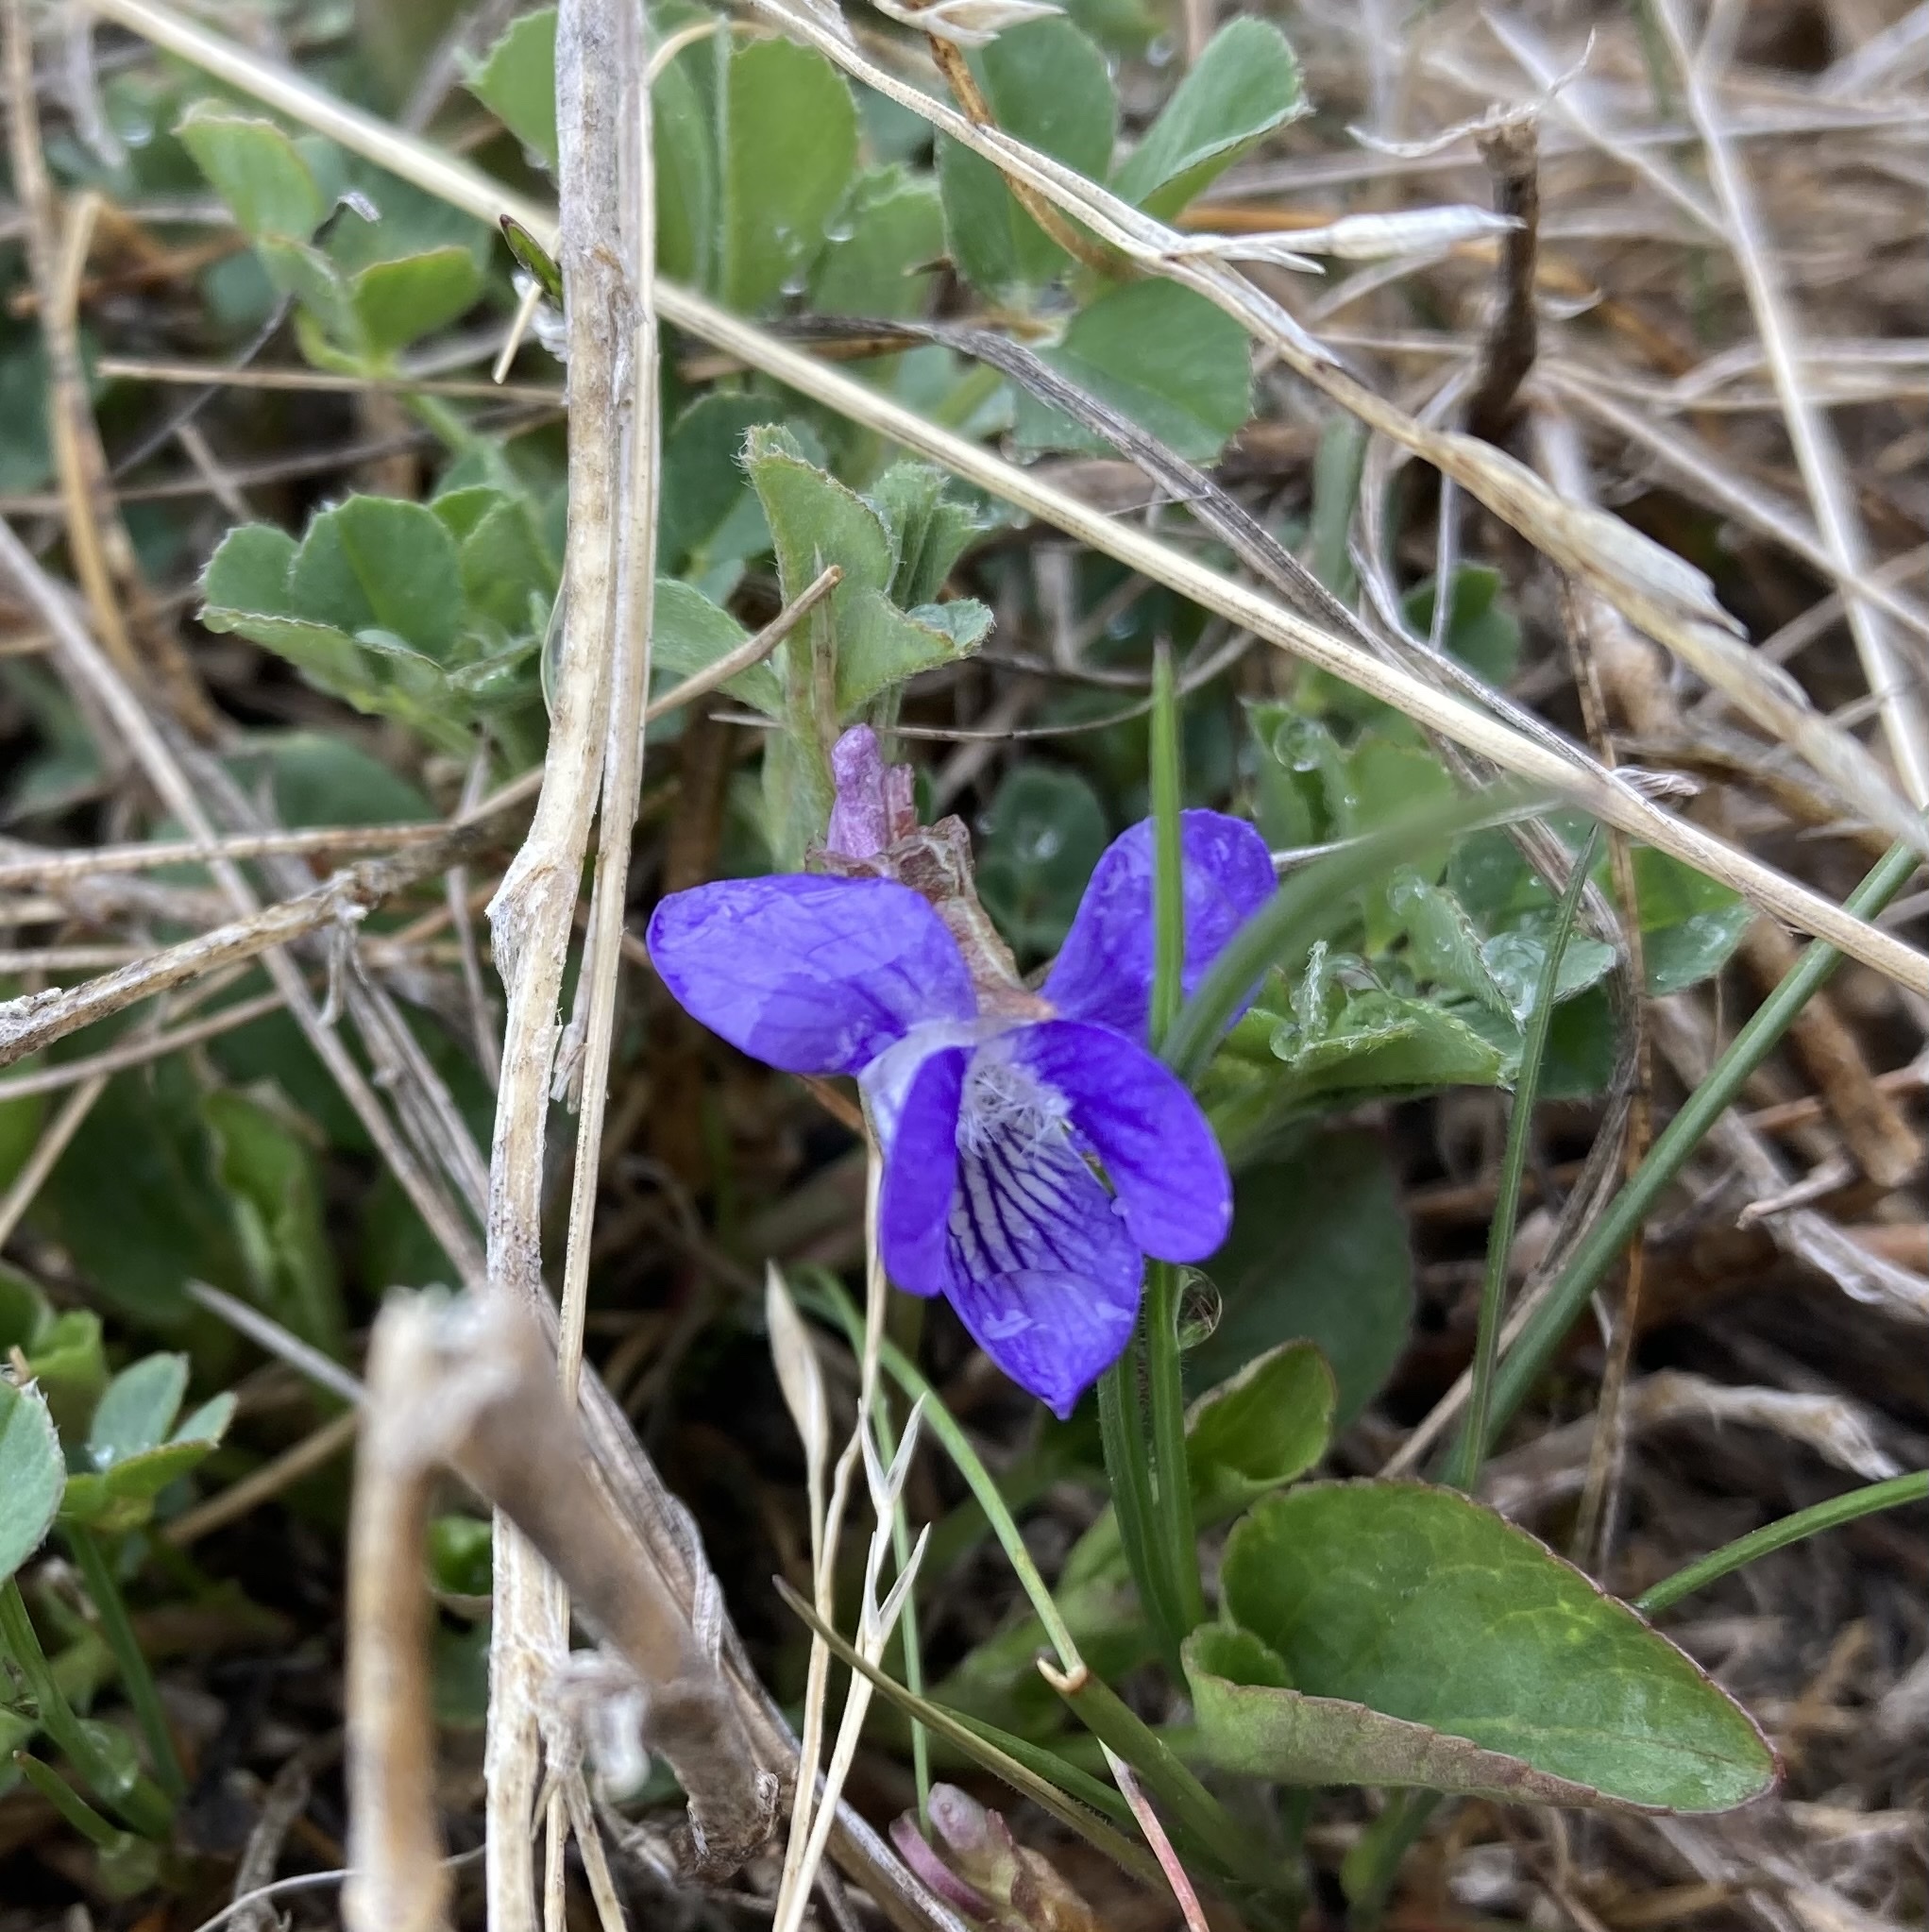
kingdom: Plantae
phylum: Tracheophyta
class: Magnoliopsida
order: Malpighiales
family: Violaceae
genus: Viola
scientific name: Viola adunca
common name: Sand violet
